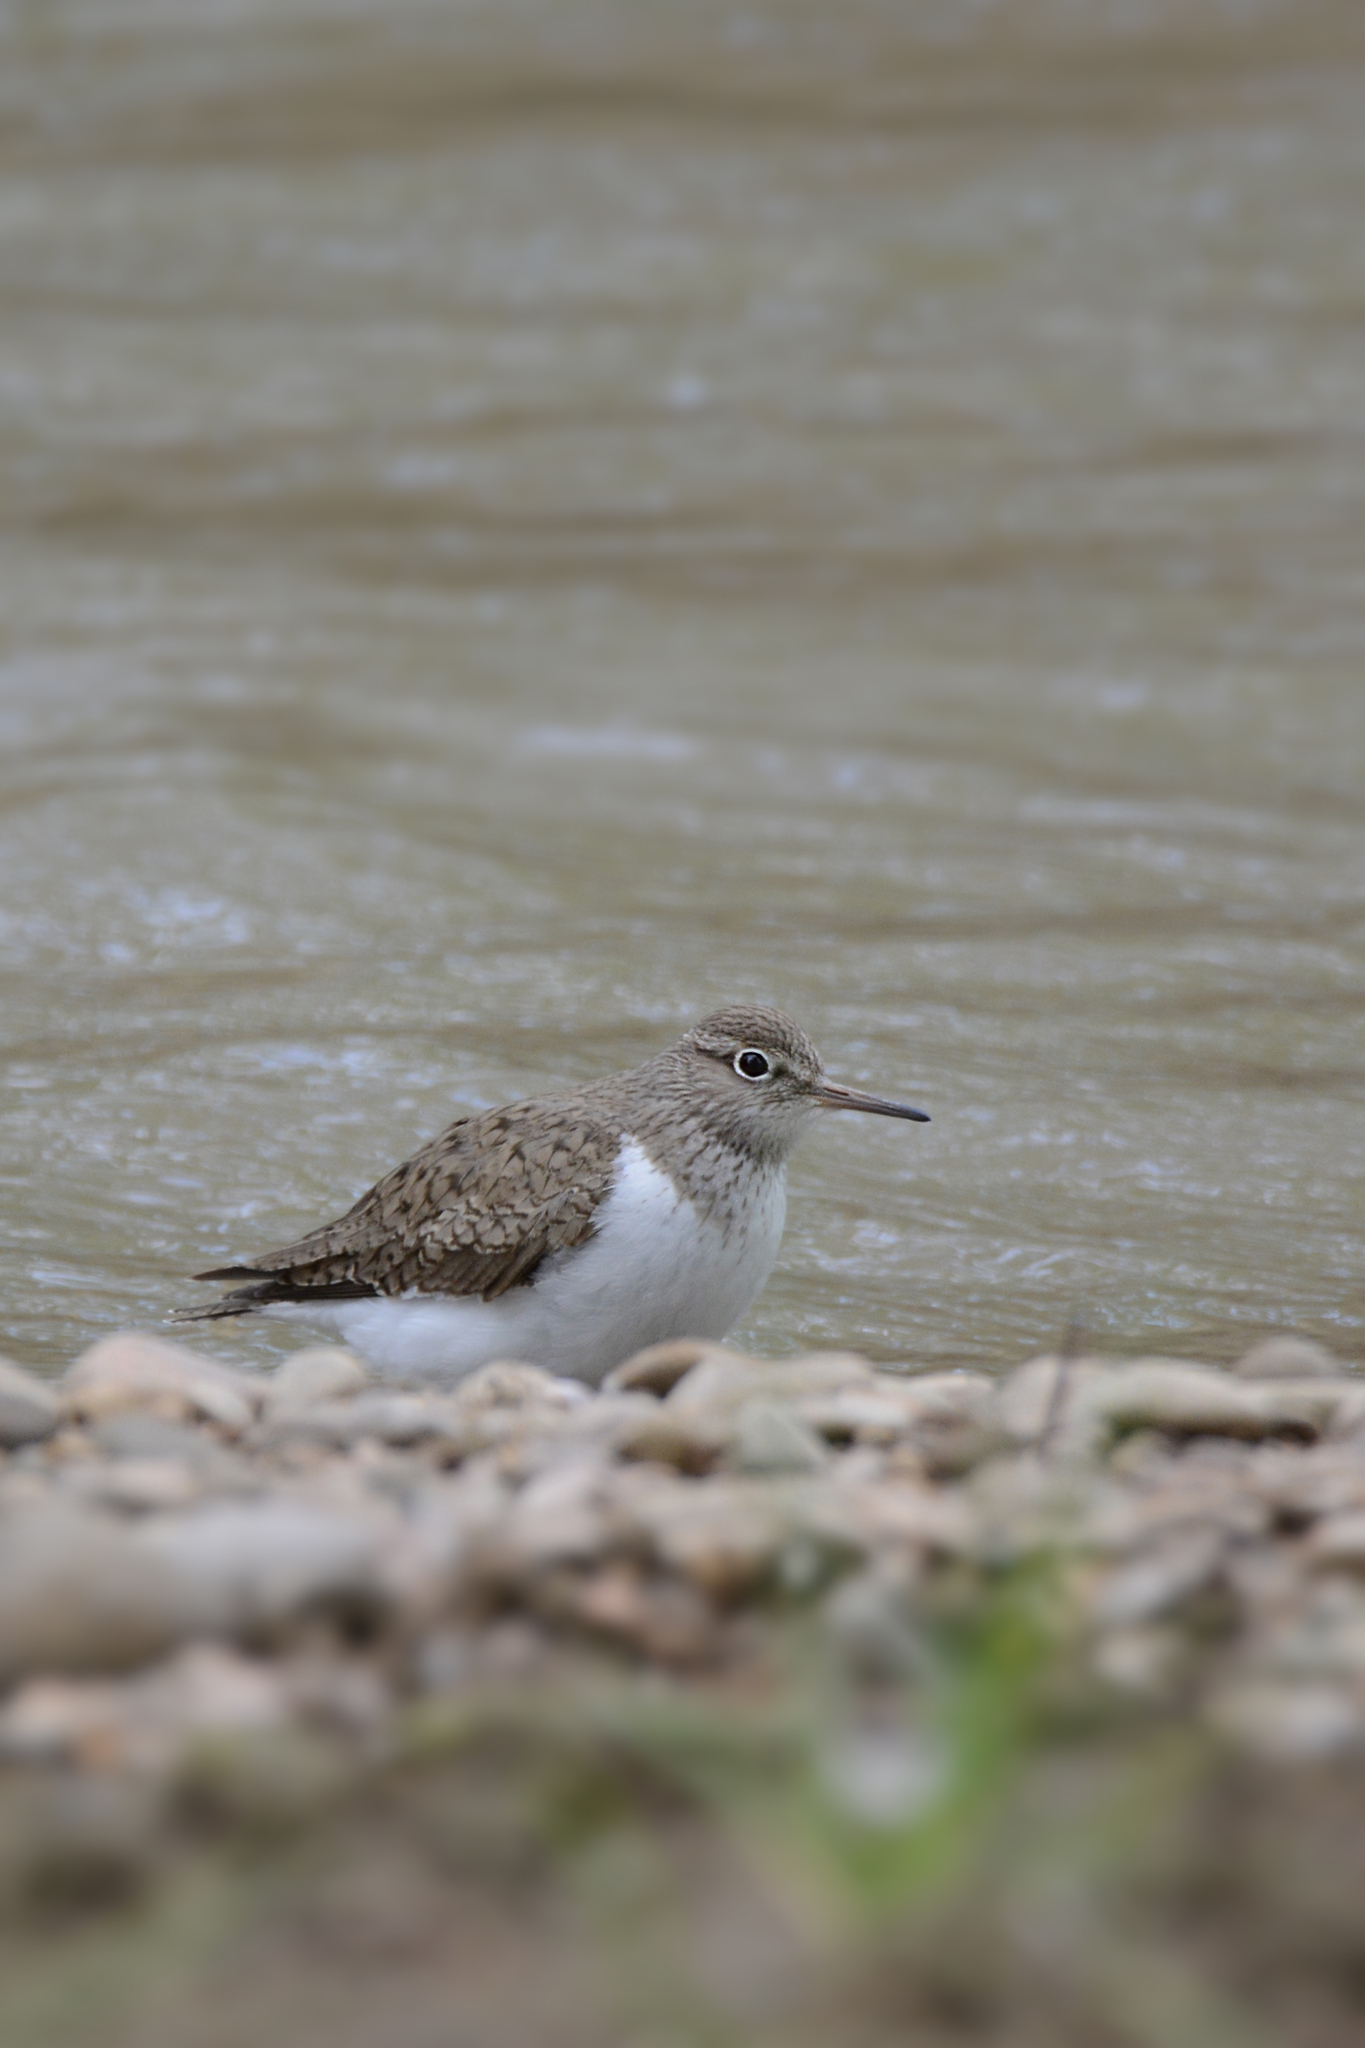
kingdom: Animalia
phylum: Chordata
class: Aves
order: Charadriiformes
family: Scolopacidae
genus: Actitis
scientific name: Actitis hypoleucos
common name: Common sandpiper
